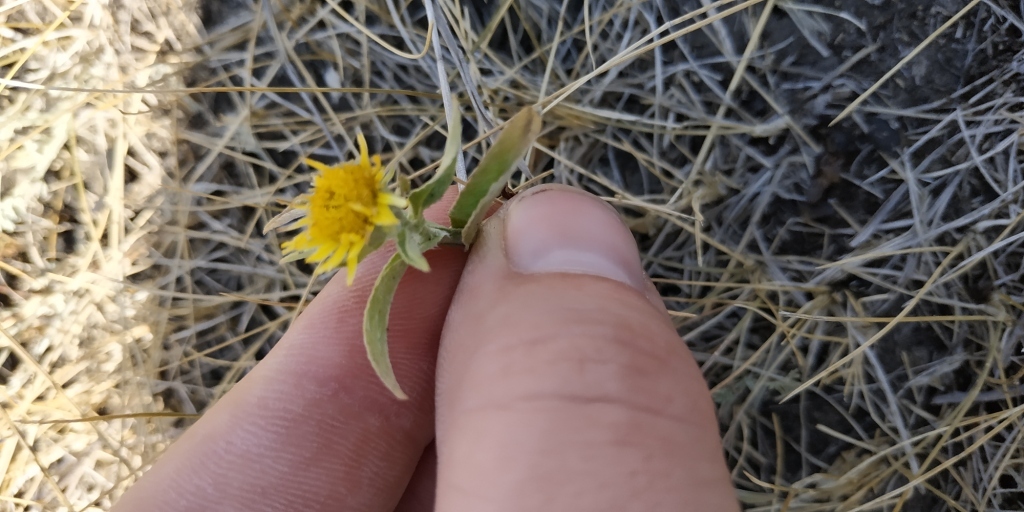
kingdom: Plantae
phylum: Tracheophyta
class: Magnoliopsida
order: Asterales
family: Asteraceae
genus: Pentanema
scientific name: Pentanema britannicum
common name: British elecampane
